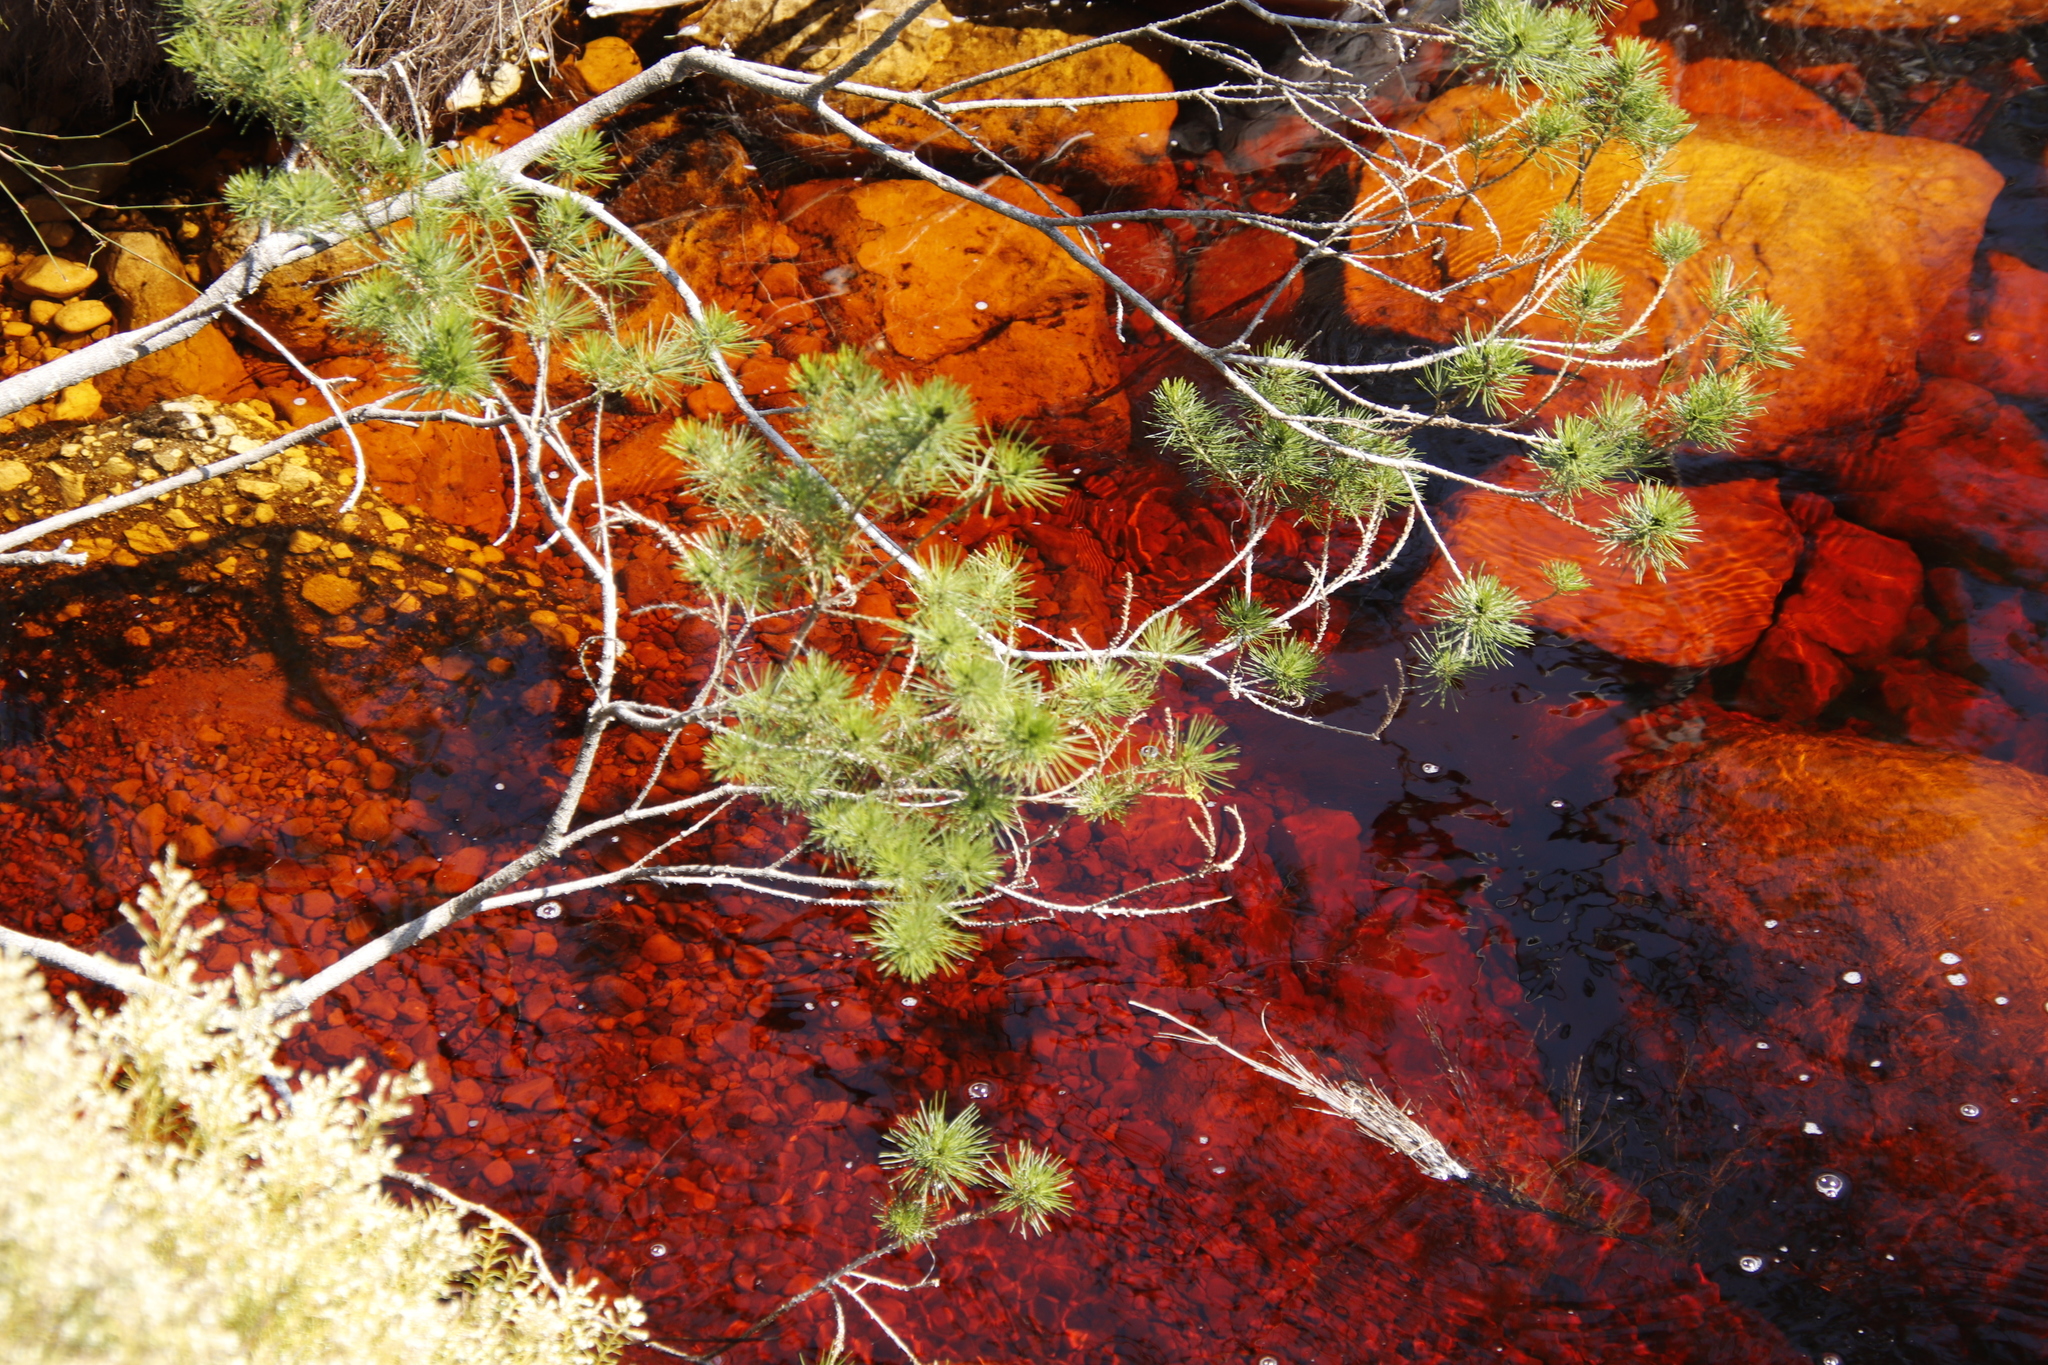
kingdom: Plantae
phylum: Tracheophyta
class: Magnoliopsida
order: Fabales
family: Fabaceae
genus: Psoralea
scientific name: Psoralea pinnata
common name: African scurfpea
